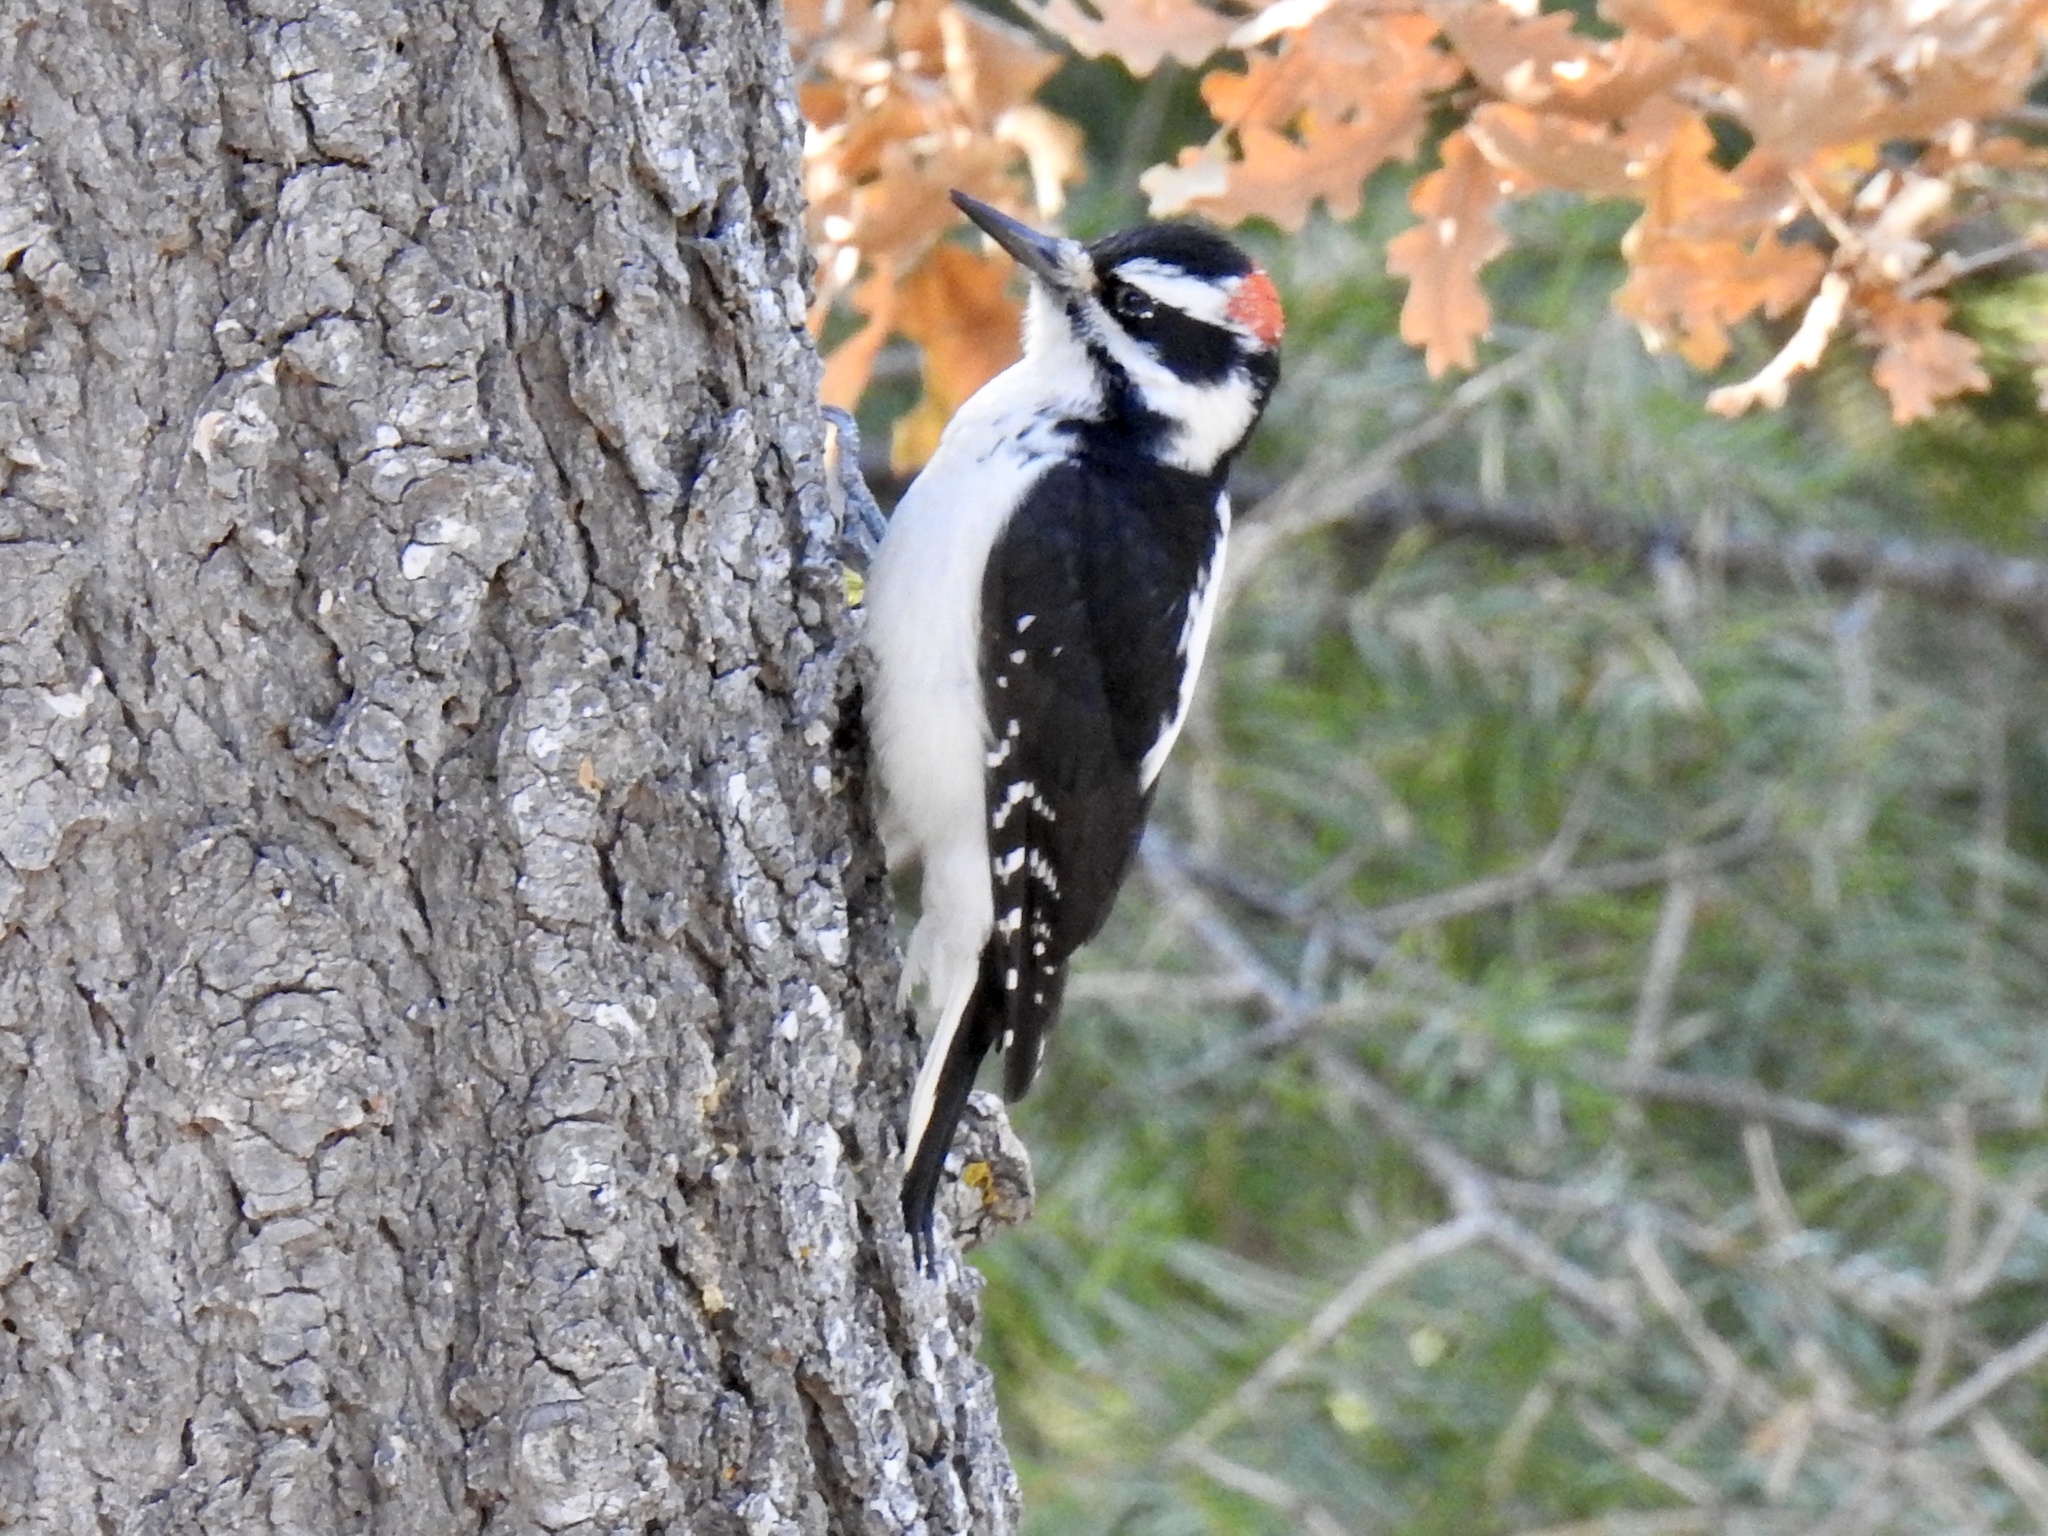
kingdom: Animalia
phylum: Chordata
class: Aves
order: Piciformes
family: Picidae
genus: Leuconotopicus
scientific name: Leuconotopicus villosus
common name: Hairy woodpecker
